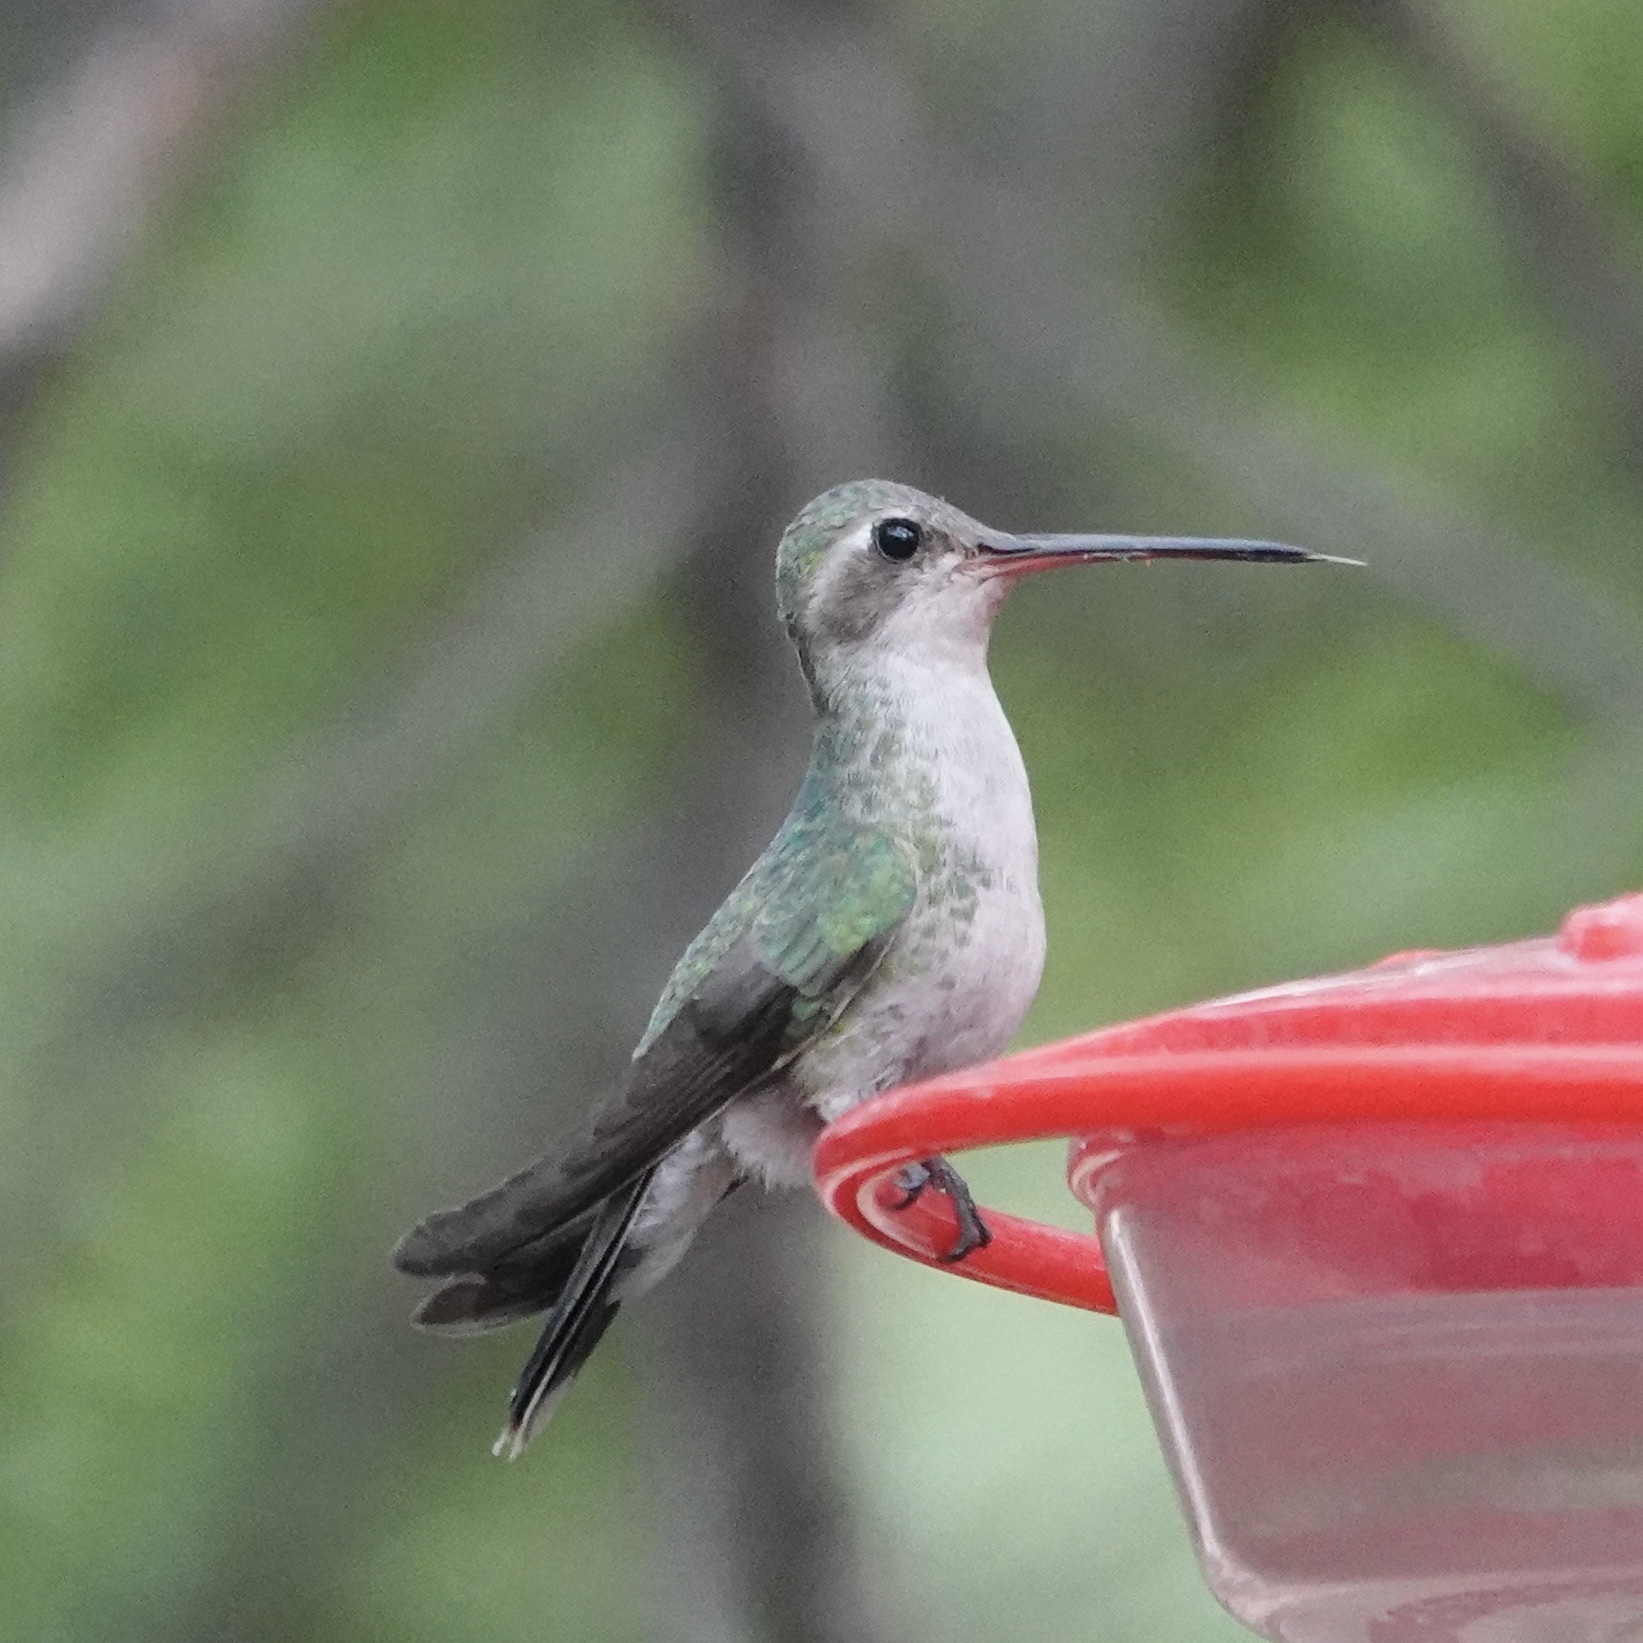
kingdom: Animalia
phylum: Chordata
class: Aves
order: Apodiformes
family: Trochilidae
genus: Cynanthus
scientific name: Cynanthus latirostris
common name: Broad-billed hummingbird
